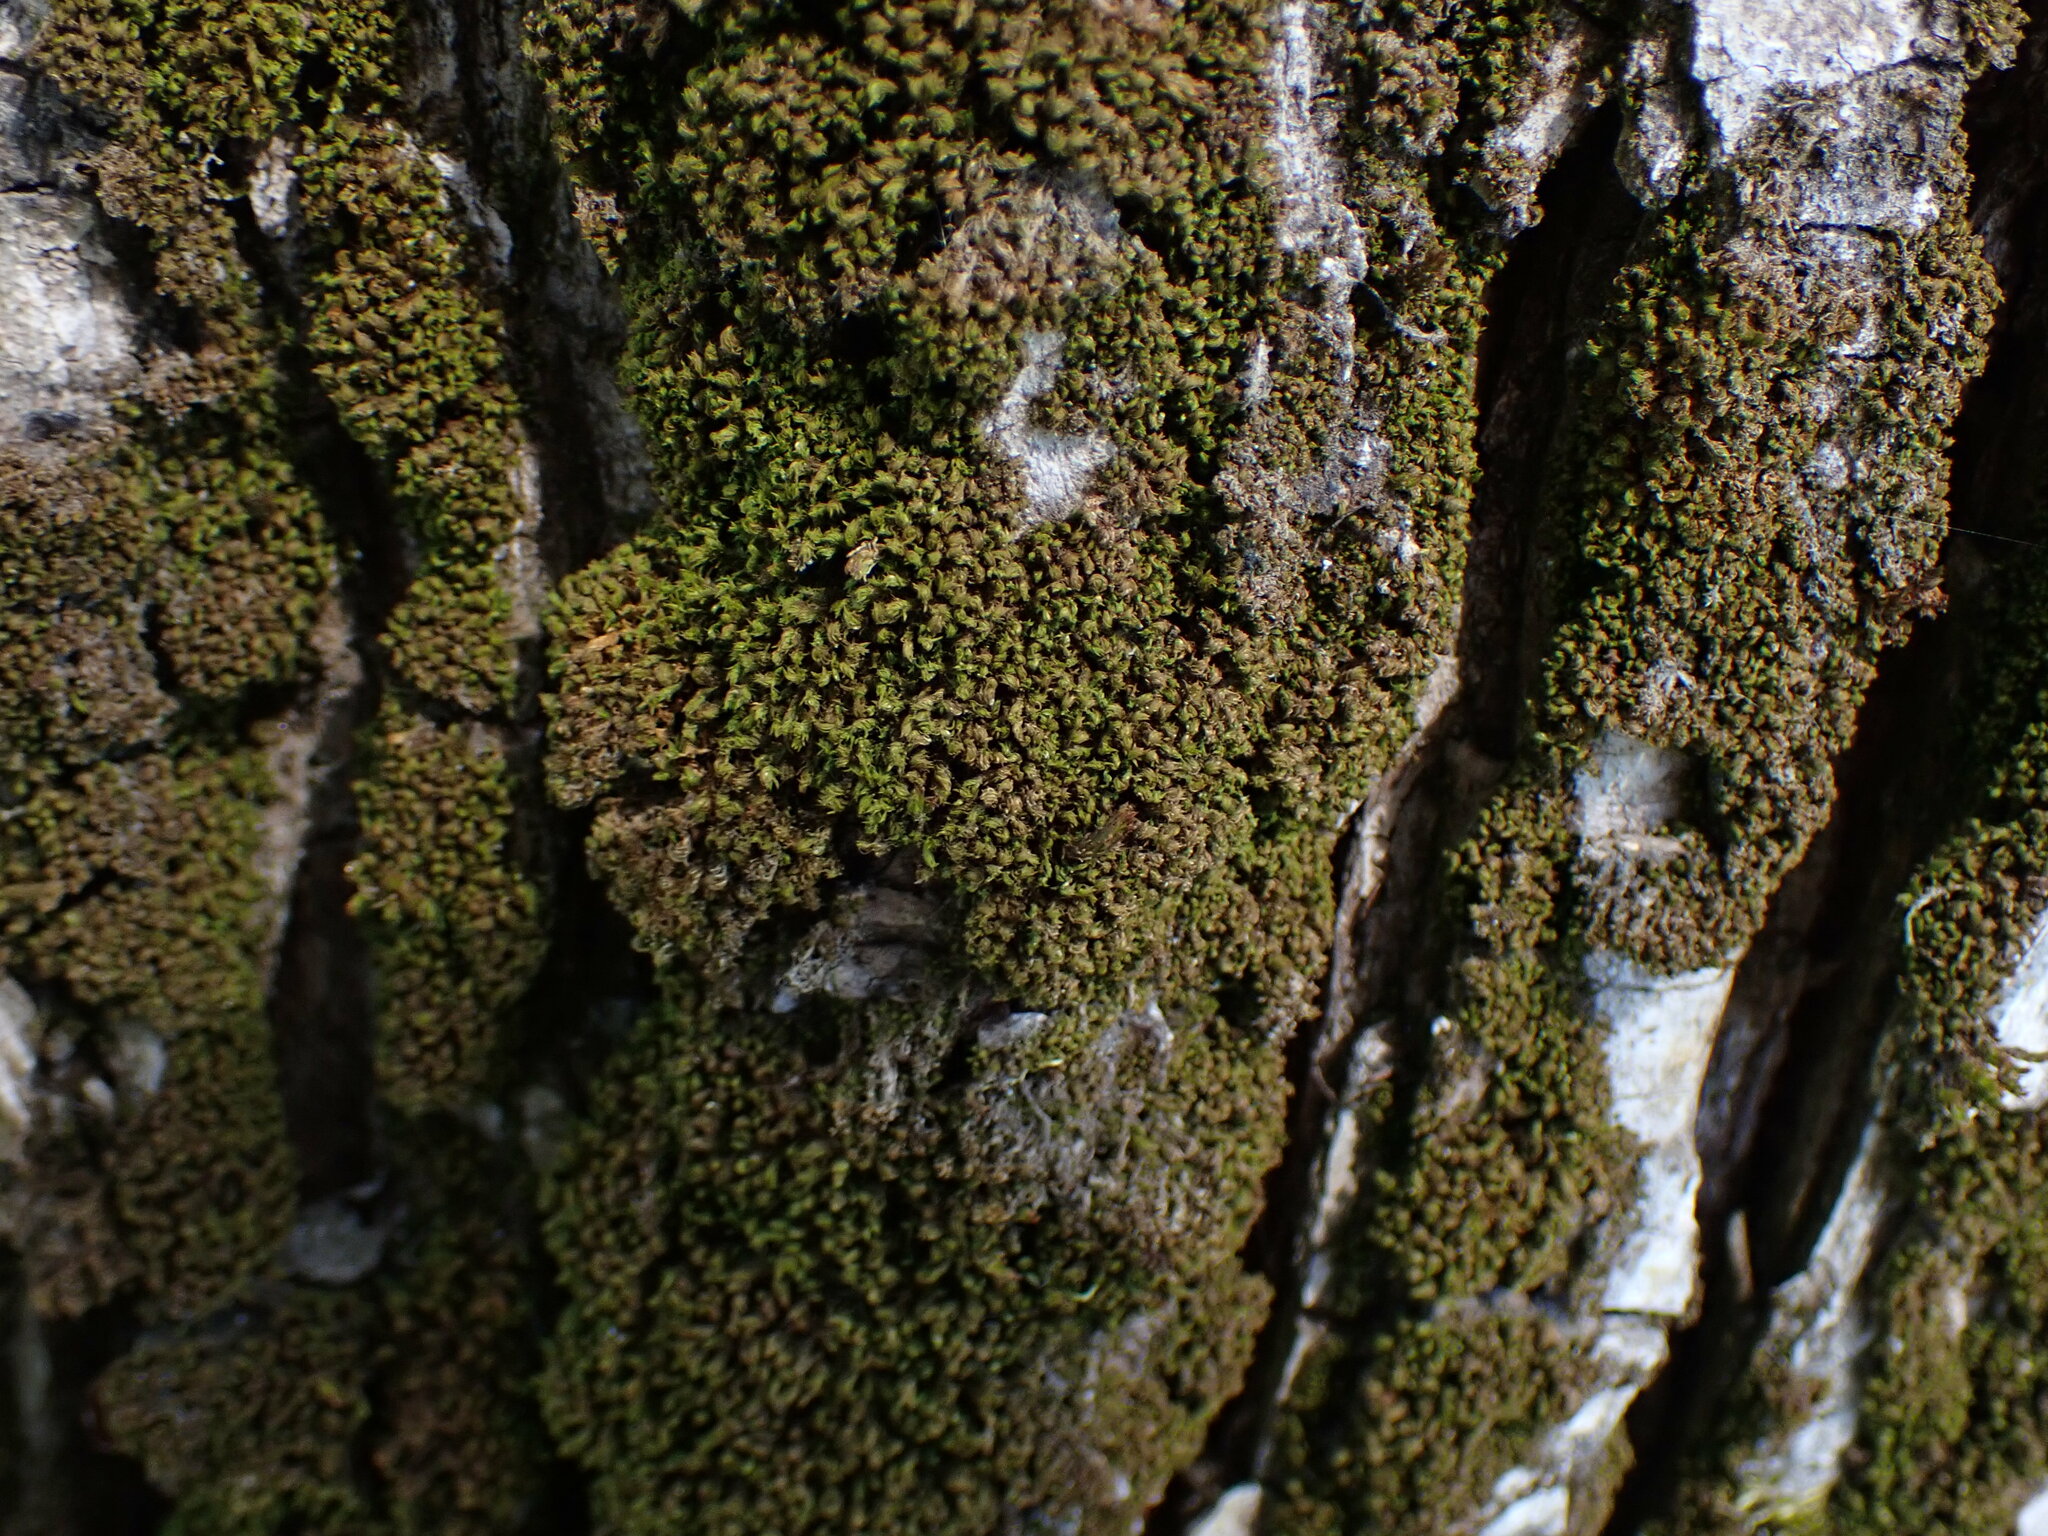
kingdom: Plantae
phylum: Bryophyta
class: Bryopsida
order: Orthotrichales
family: Orthotrichaceae
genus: Zygodon
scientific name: Zygodon rupestris
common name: Park yoke moss
